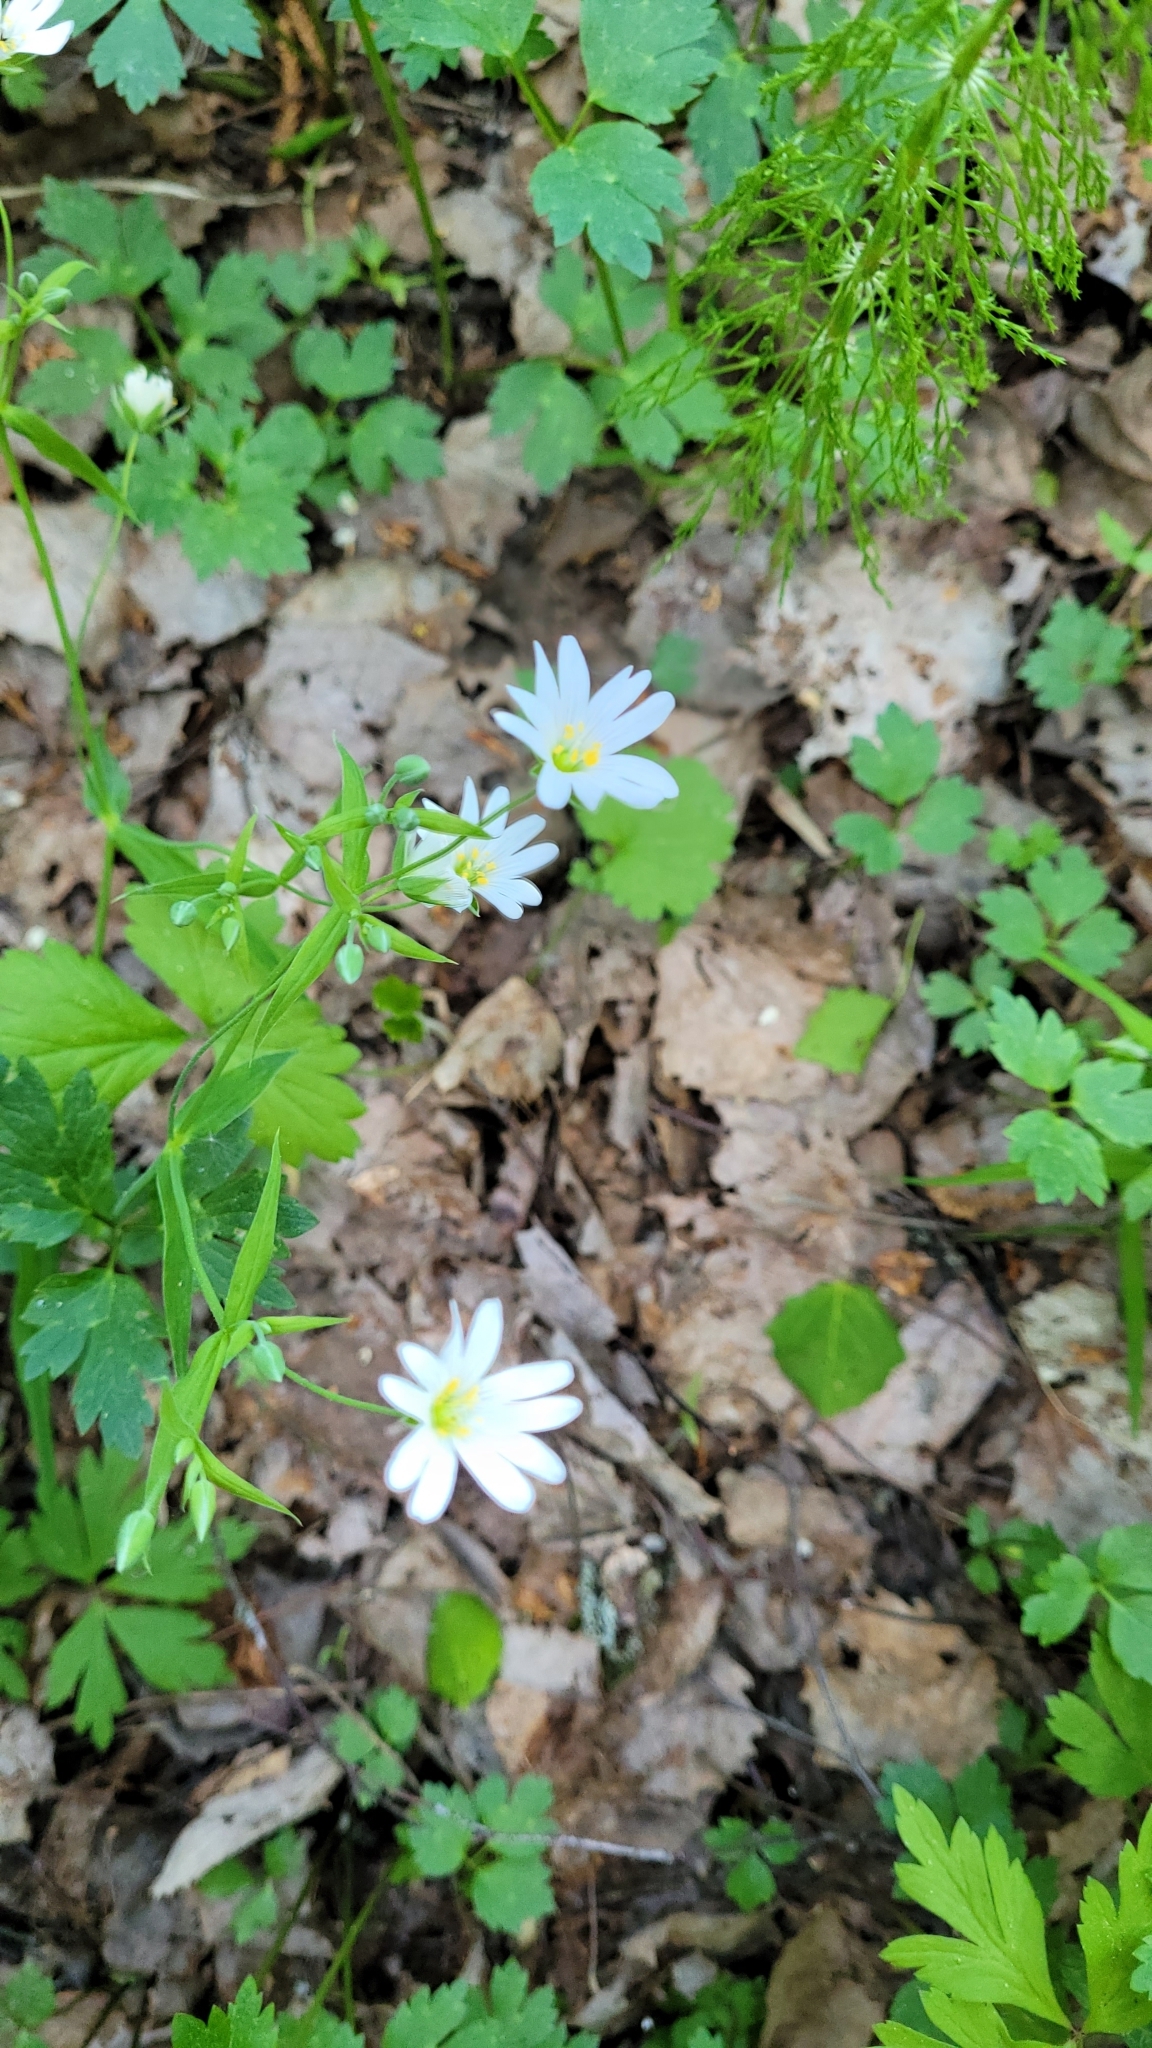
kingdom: Plantae
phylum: Tracheophyta
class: Magnoliopsida
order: Caryophyllales
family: Caryophyllaceae
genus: Rabelera
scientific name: Rabelera holostea
